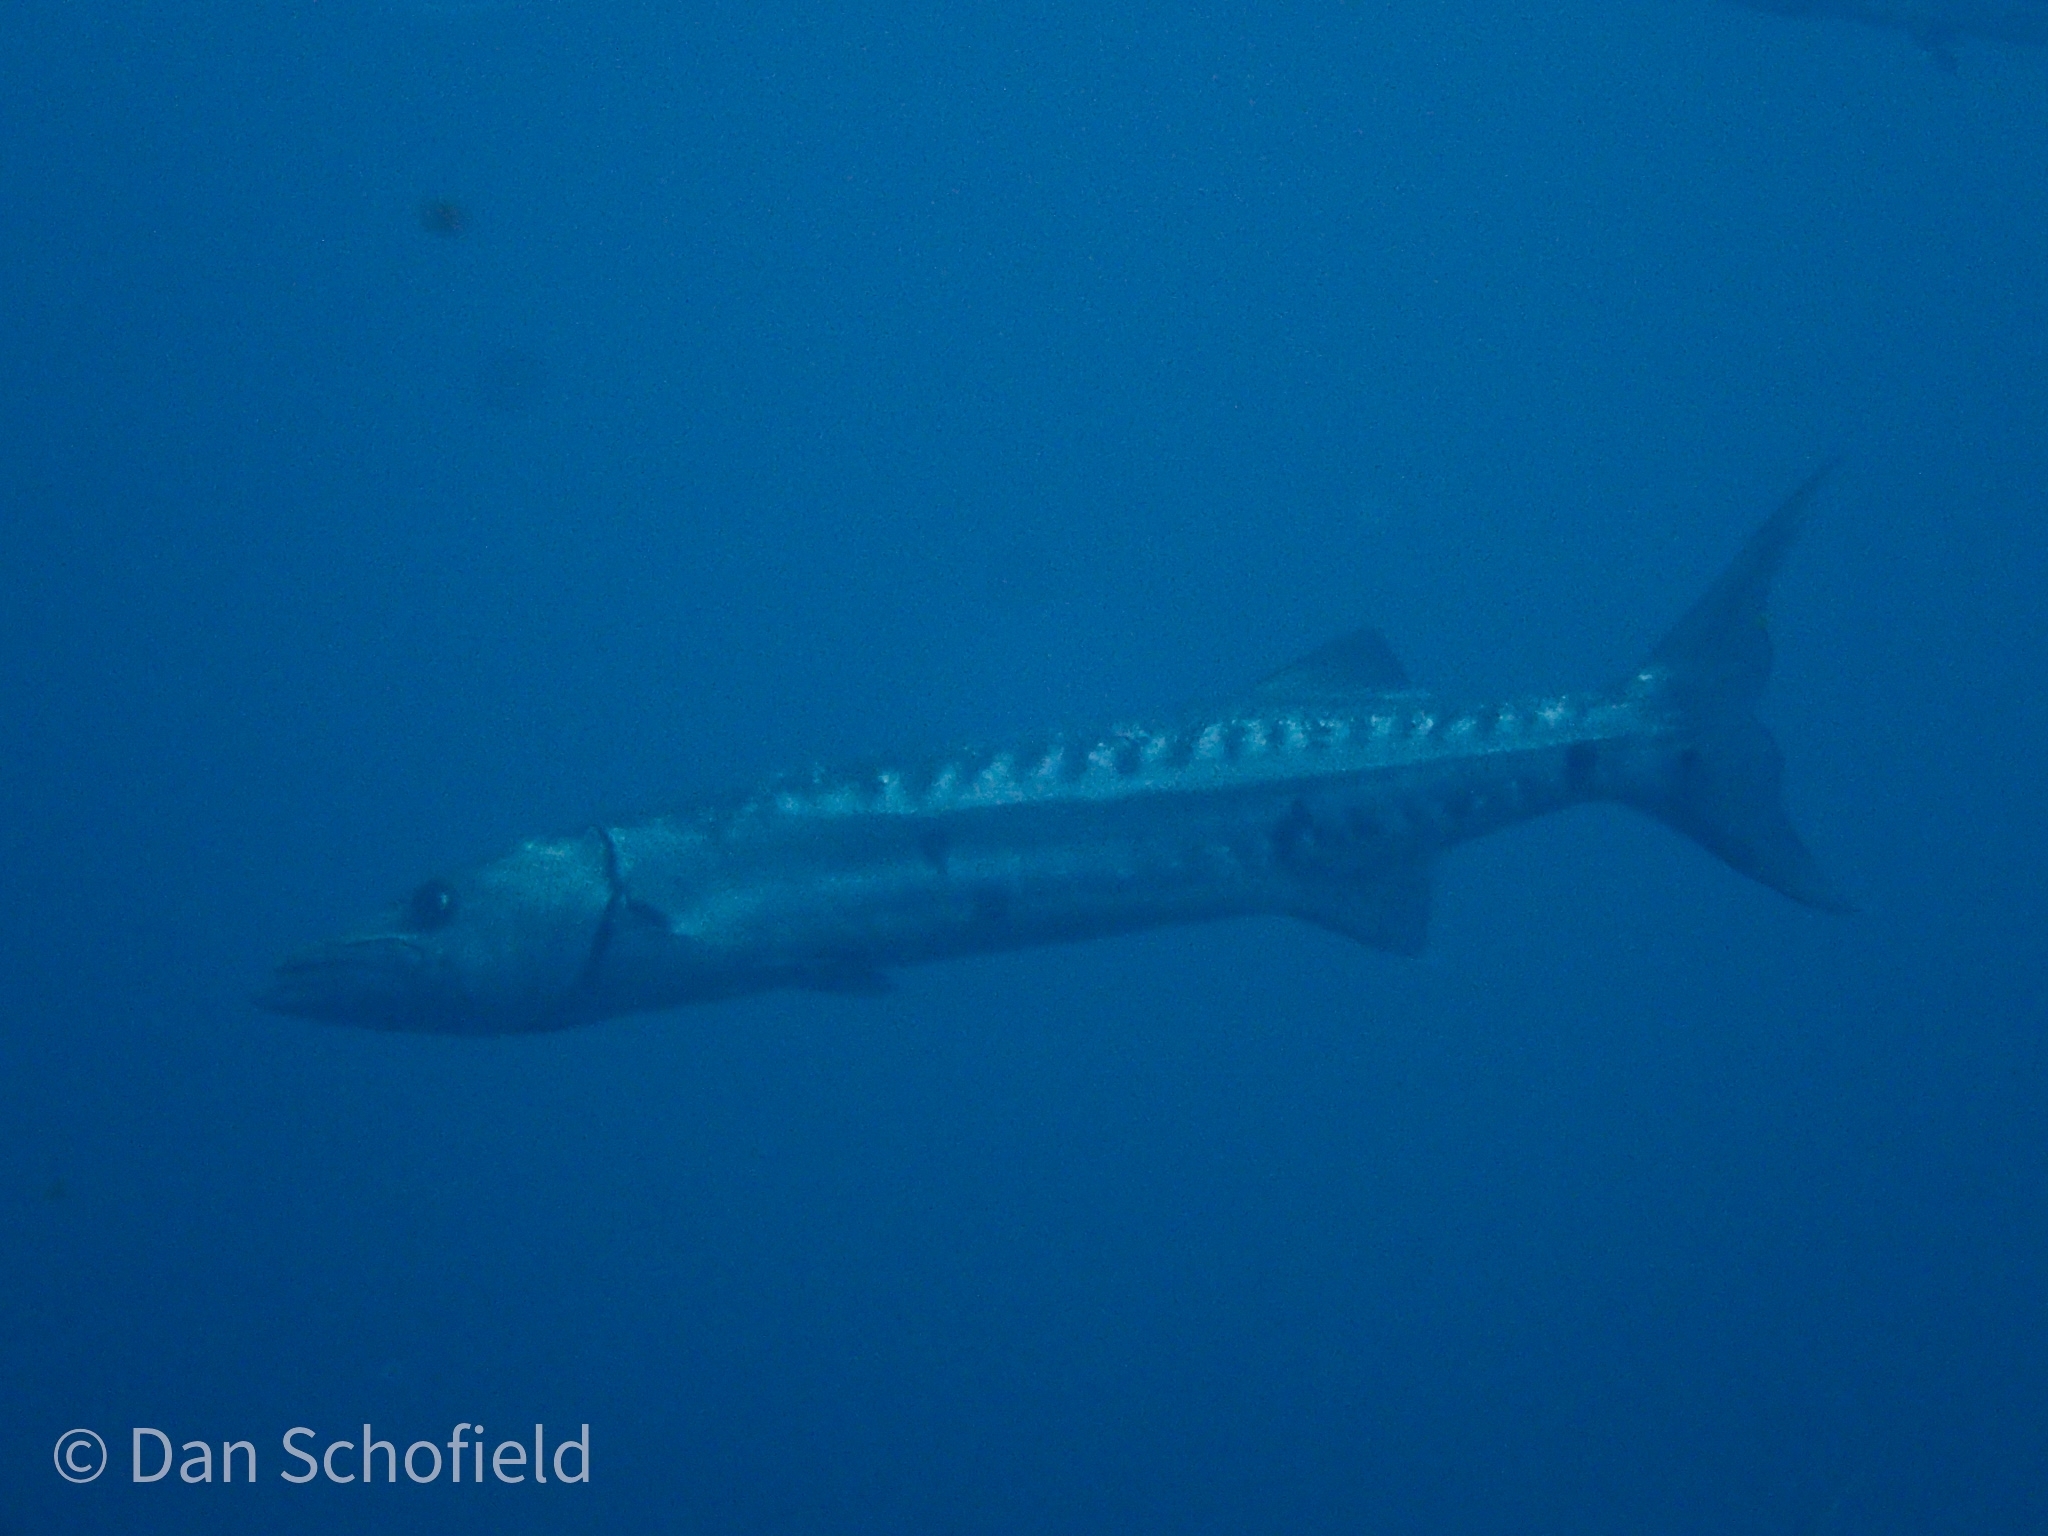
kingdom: Animalia
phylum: Chordata
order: Perciformes
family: Sphyraenidae
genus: Sphyraena
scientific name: Sphyraena barracuda
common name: Great barracuda
